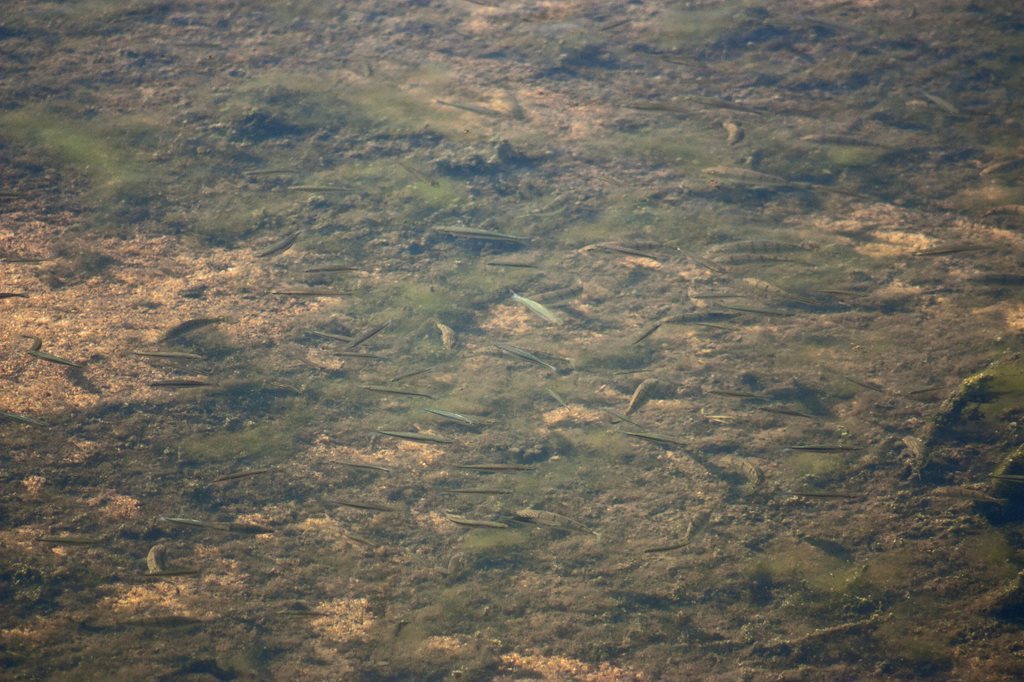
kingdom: Animalia
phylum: Chordata
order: Atheriniformes
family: Melanotaeniidae
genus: Melanotaenia
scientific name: Melanotaenia splendida
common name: Checkered rainbowfish
